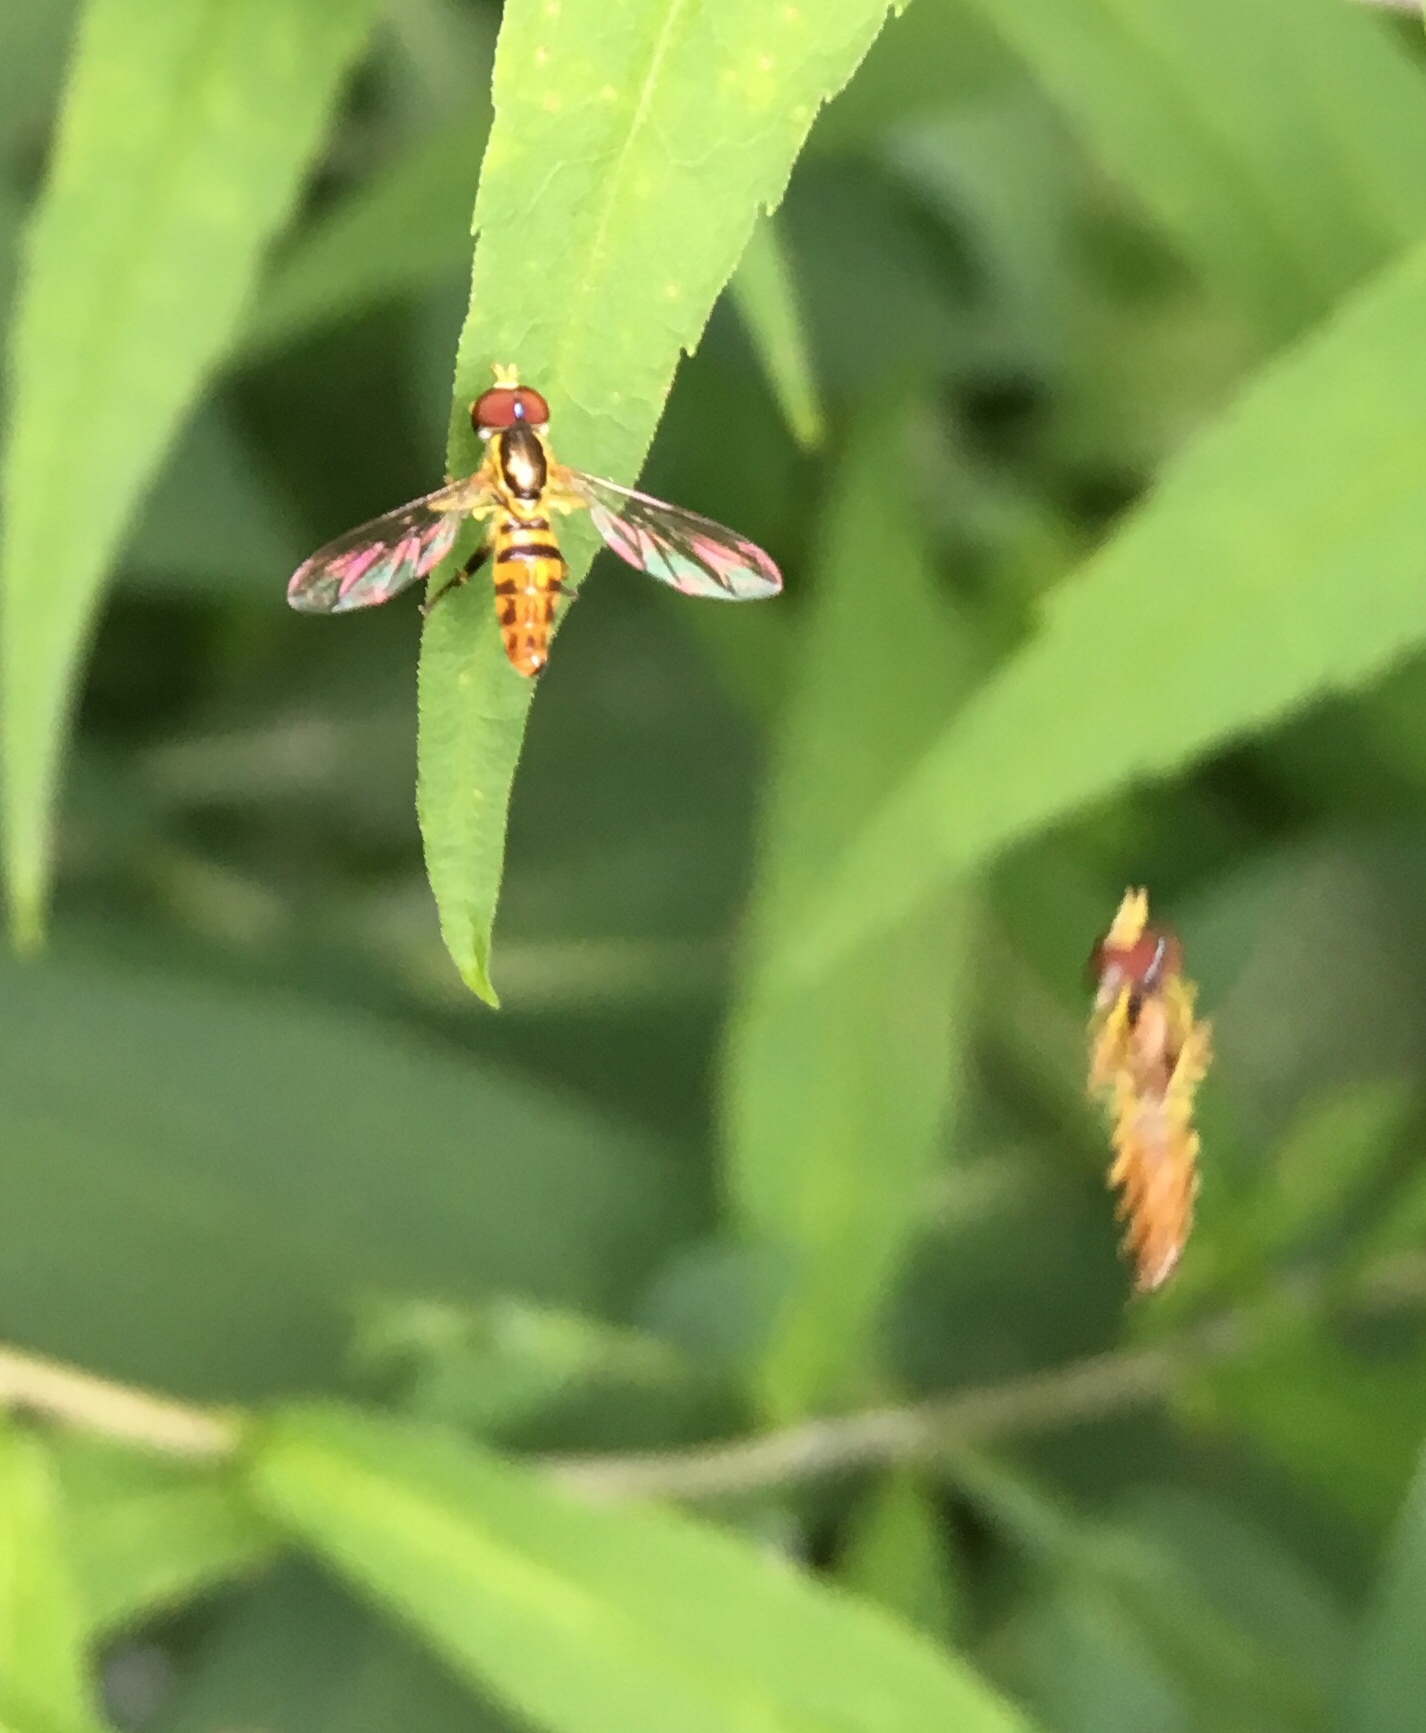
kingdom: Animalia
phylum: Arthropoda
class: Insecta
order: Diptera
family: Syrphidae
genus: Toxomerus
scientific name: Toxomerus geminatus
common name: Eastern calligrapher
